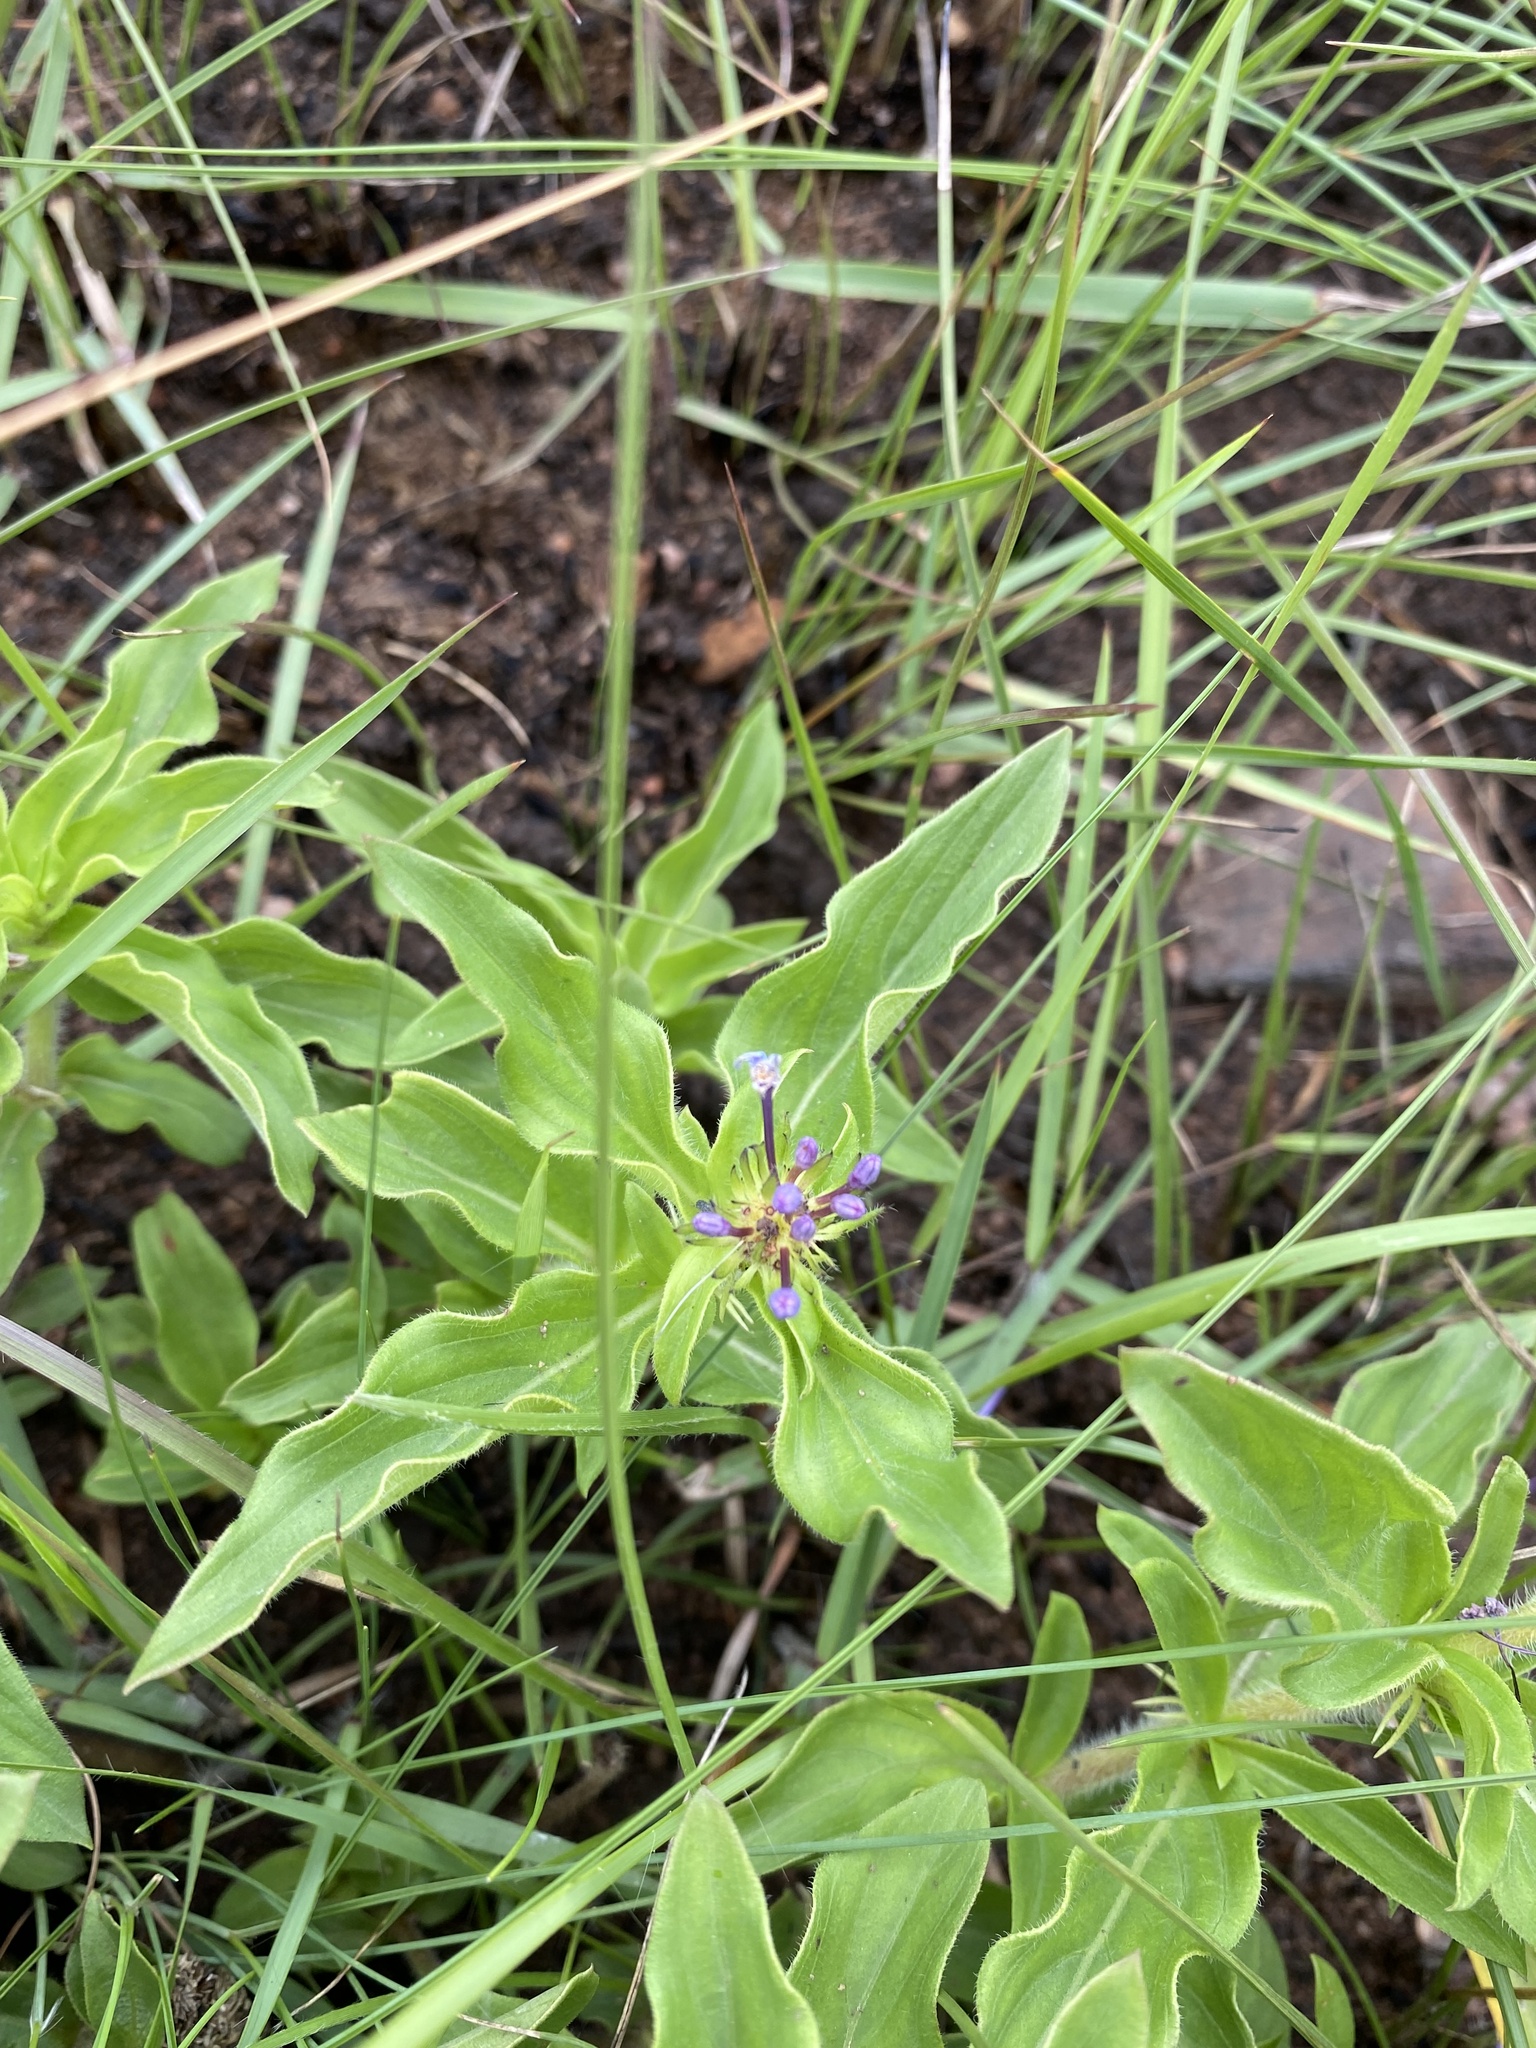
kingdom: Plantae
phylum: Tracheophyta
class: Magnoliopsida
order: Gentianales
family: Rubiaceae
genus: Pentanisia
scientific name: Pentanisia angustifolia
